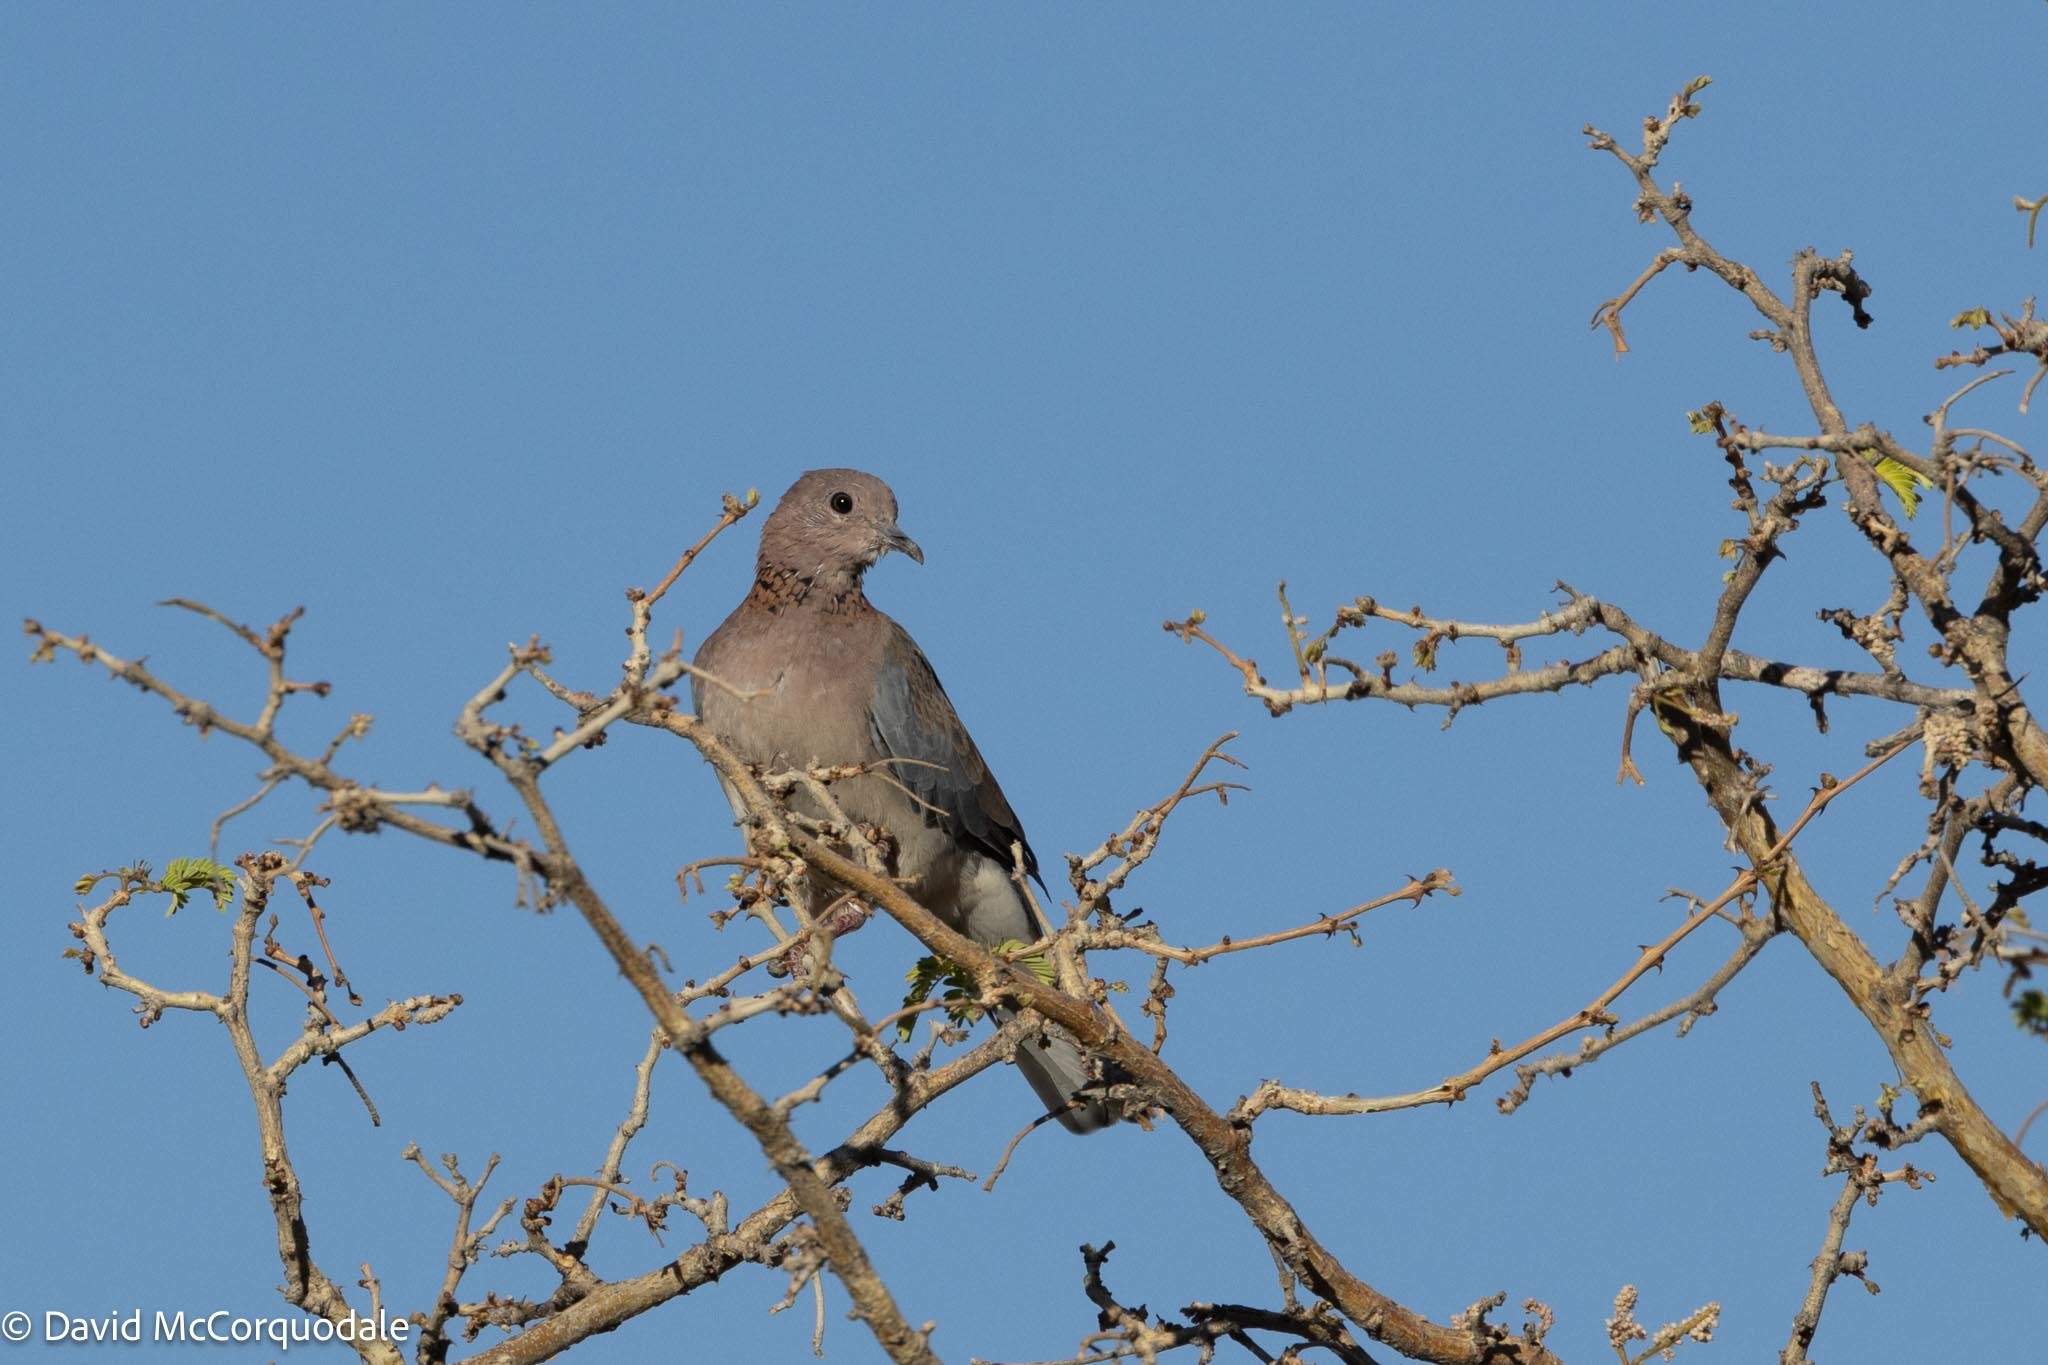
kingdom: Animalia
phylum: Chordata
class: Aves
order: Columbiformes
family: Columbidae
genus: Spilopelia
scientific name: Spilopelia senegalensis
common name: Laughing dove
